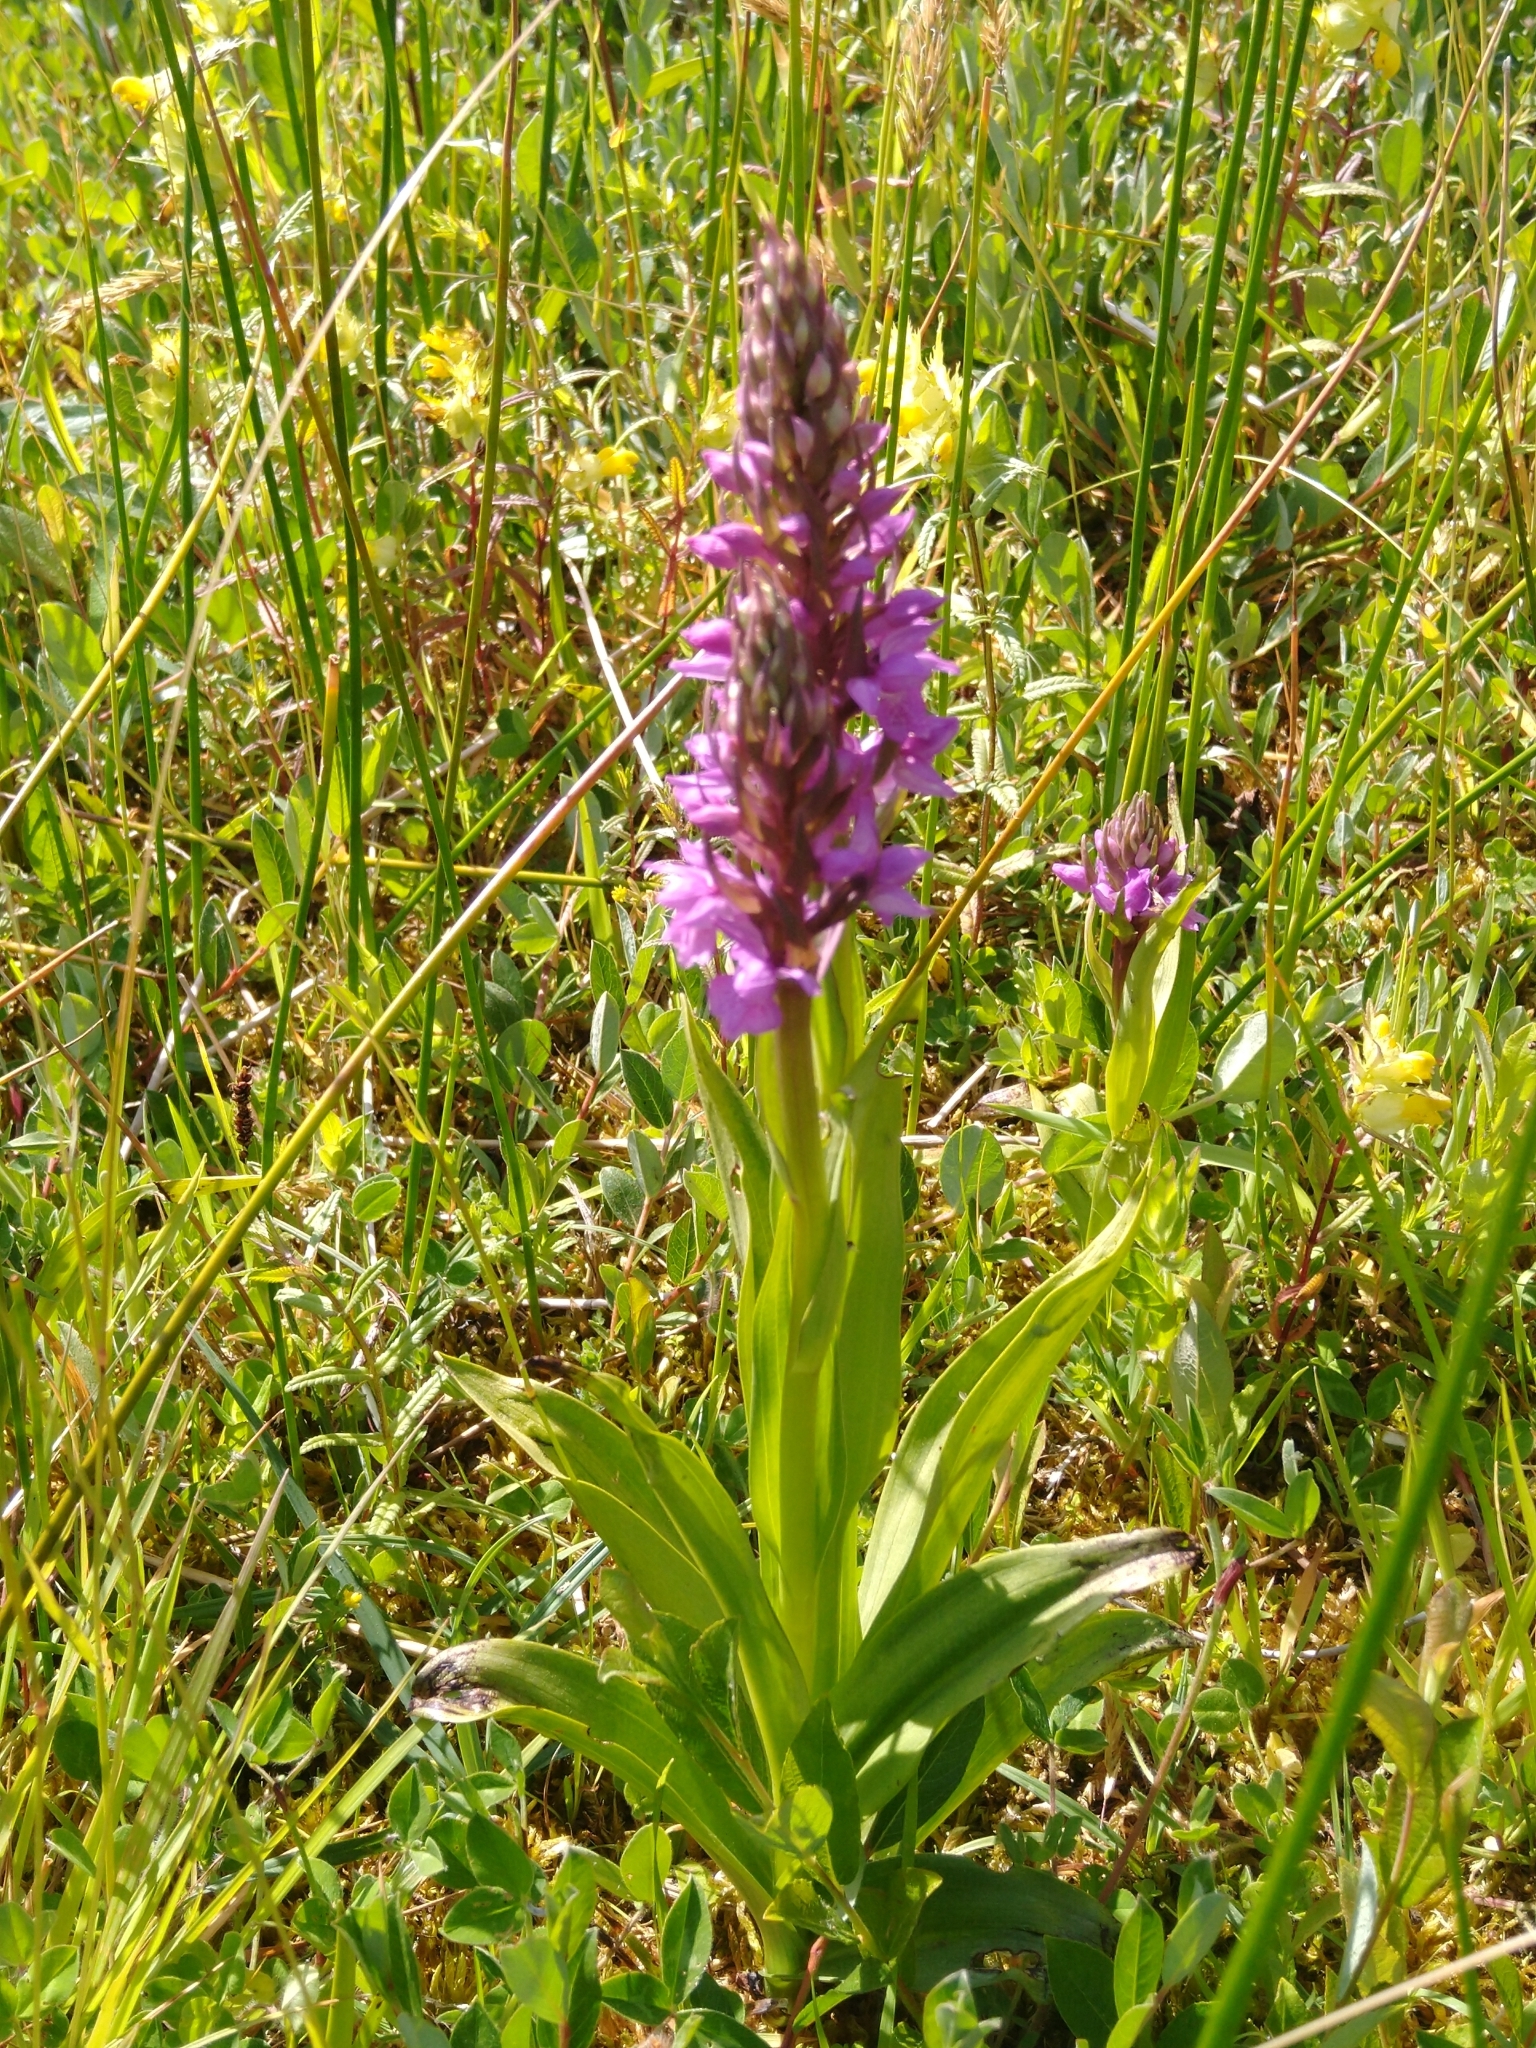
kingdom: Plantae
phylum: Tracheophyta
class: Liliopsida
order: Asparagales
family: Orchidaceae
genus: Dactylorhiza
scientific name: Dactylorhiza majalis
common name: Marsh orchid
